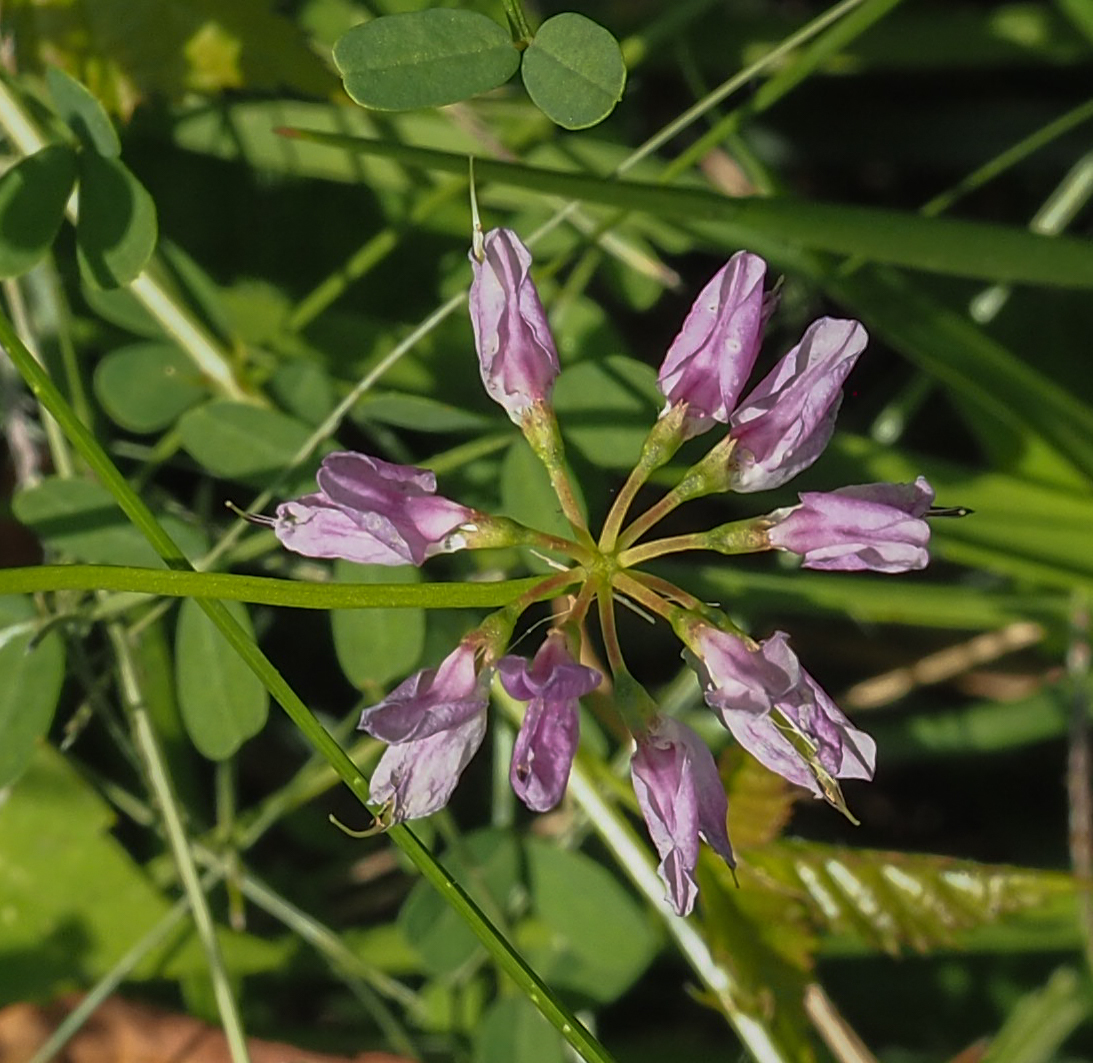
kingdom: Plantae
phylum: Tracheophyta
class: Magnoliopsida
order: Fabales
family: Fabaceae
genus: Coronilla
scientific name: Coronilla varia
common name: Crownvetch
